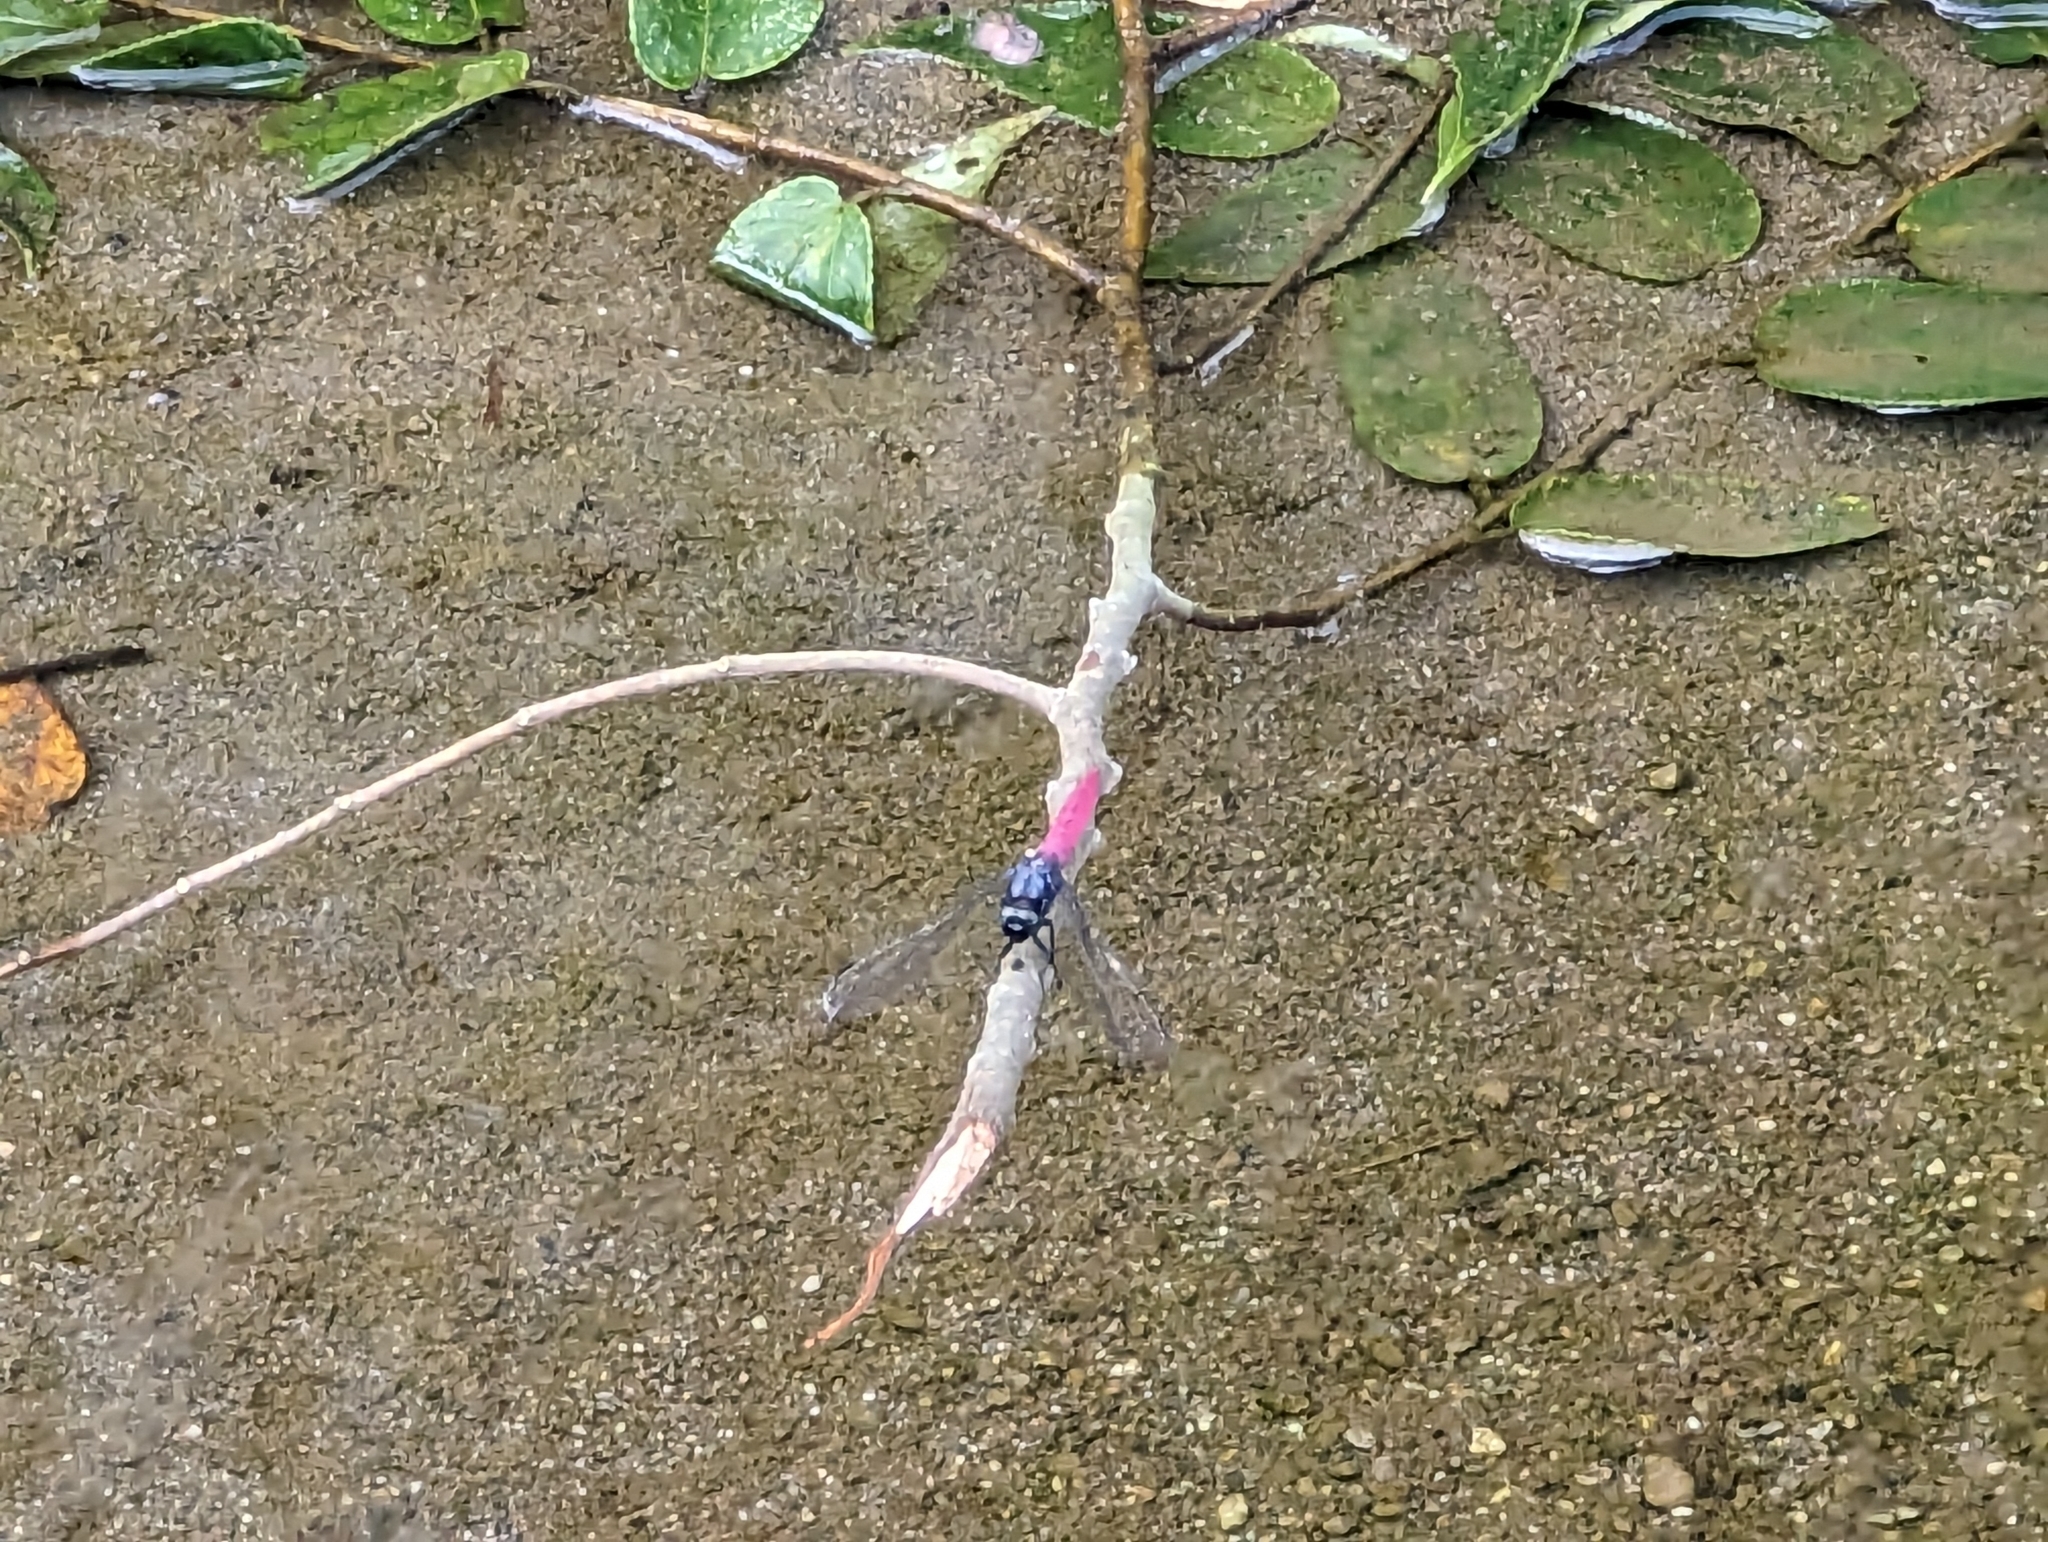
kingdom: Animalia
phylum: Arthropoda
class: Insecta
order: Odonata
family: Libellulidae
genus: Orthetrum
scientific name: Orthetrum pruinosum
